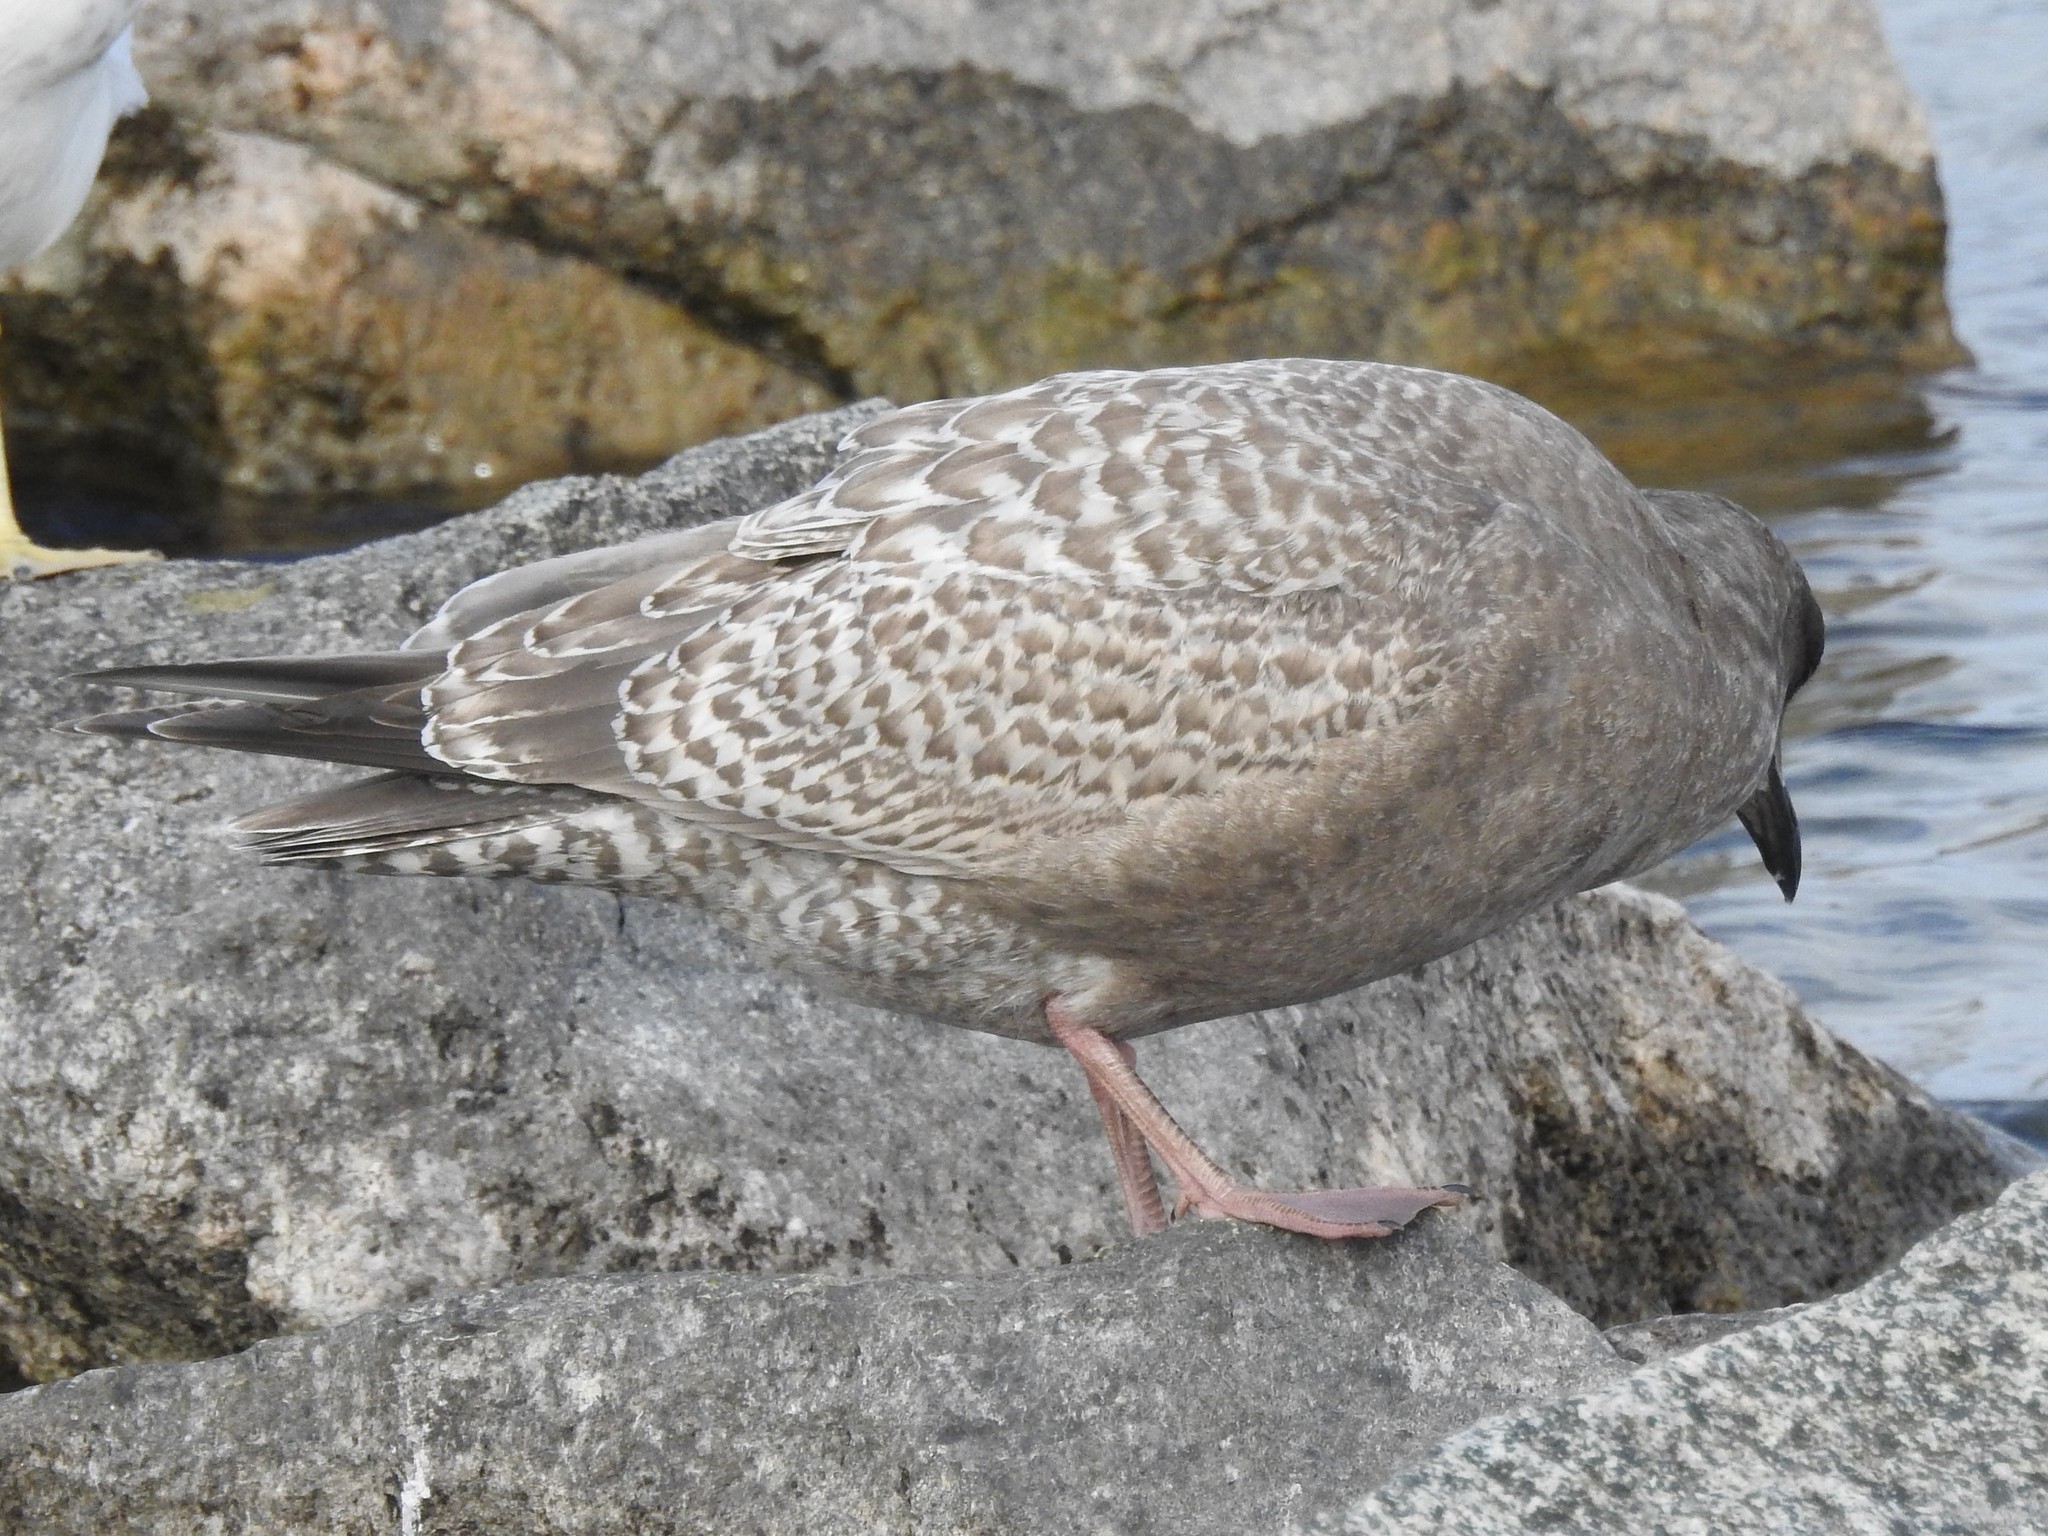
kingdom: Animalia
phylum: Chordata
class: Aves
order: Charadriiformes
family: Laridae
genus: Larus
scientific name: Larus glaucoides
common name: Iceland gull
